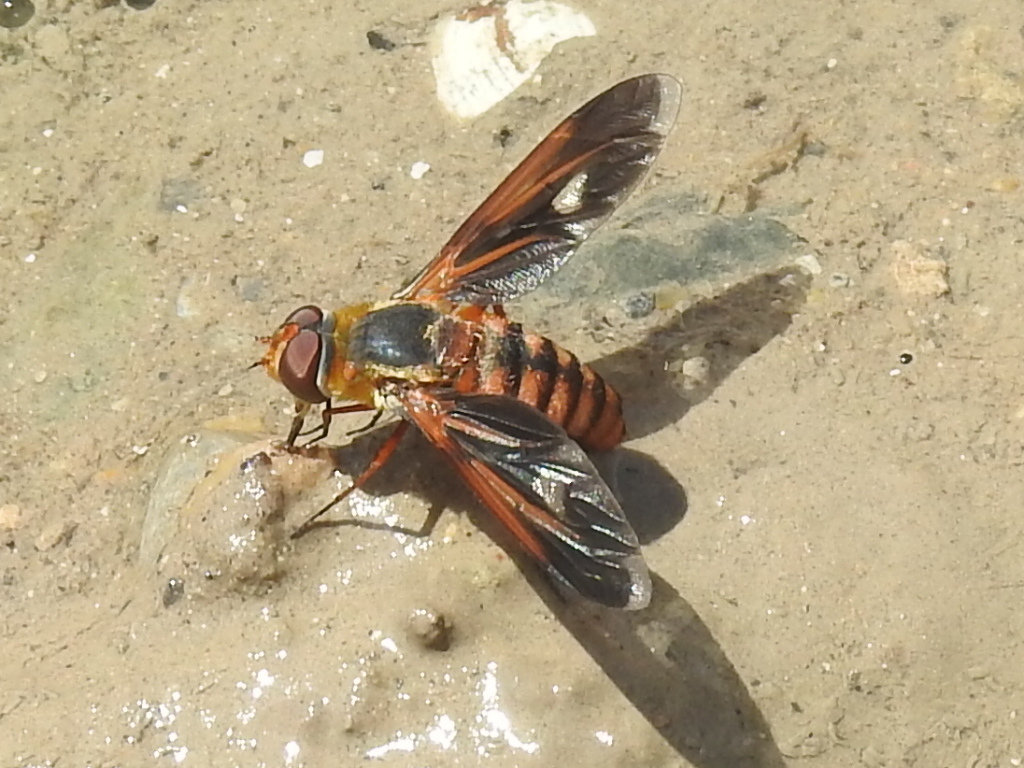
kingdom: Animalia
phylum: Arthropoda
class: Insecta
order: Diptera
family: Bombyliidae
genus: Poecilanthrax
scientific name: Poecilanthrax effrenus
